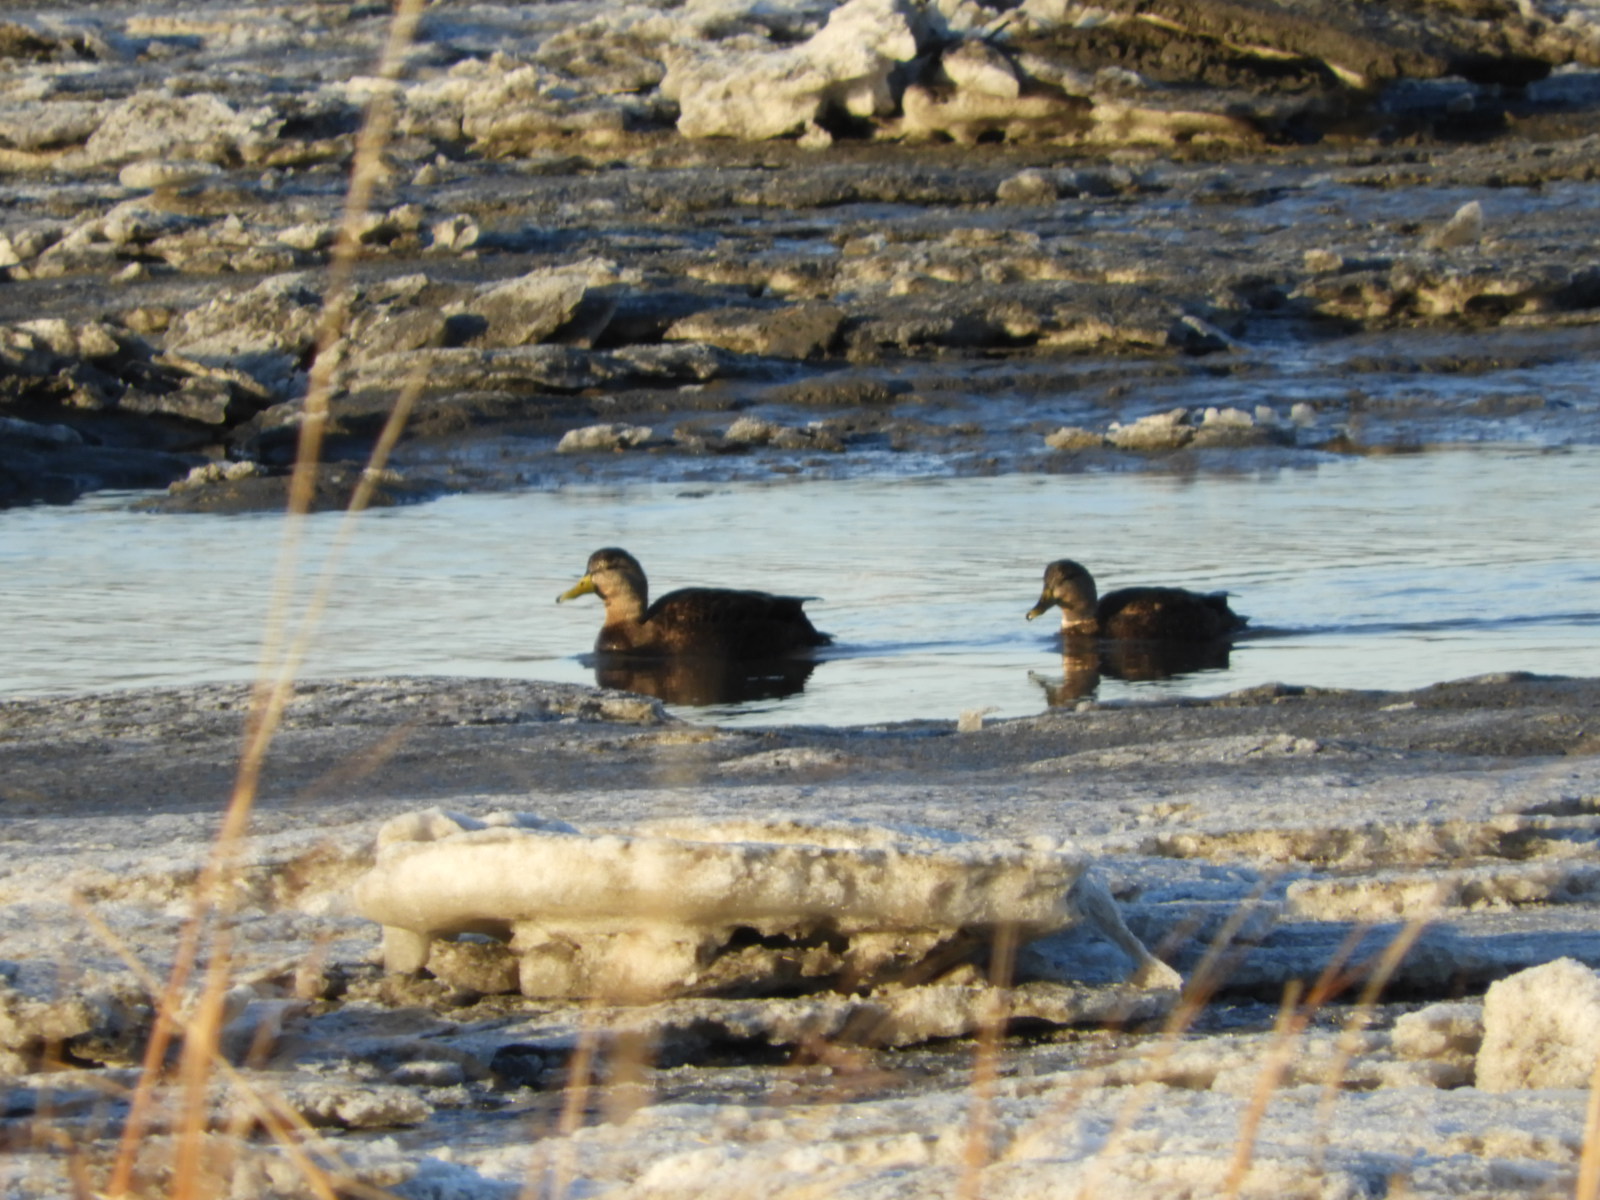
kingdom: Animalia
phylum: Chordata
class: Aves
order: Anseriformes
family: Anatidae
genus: Anas
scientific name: Anas rubripes
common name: American black duck
